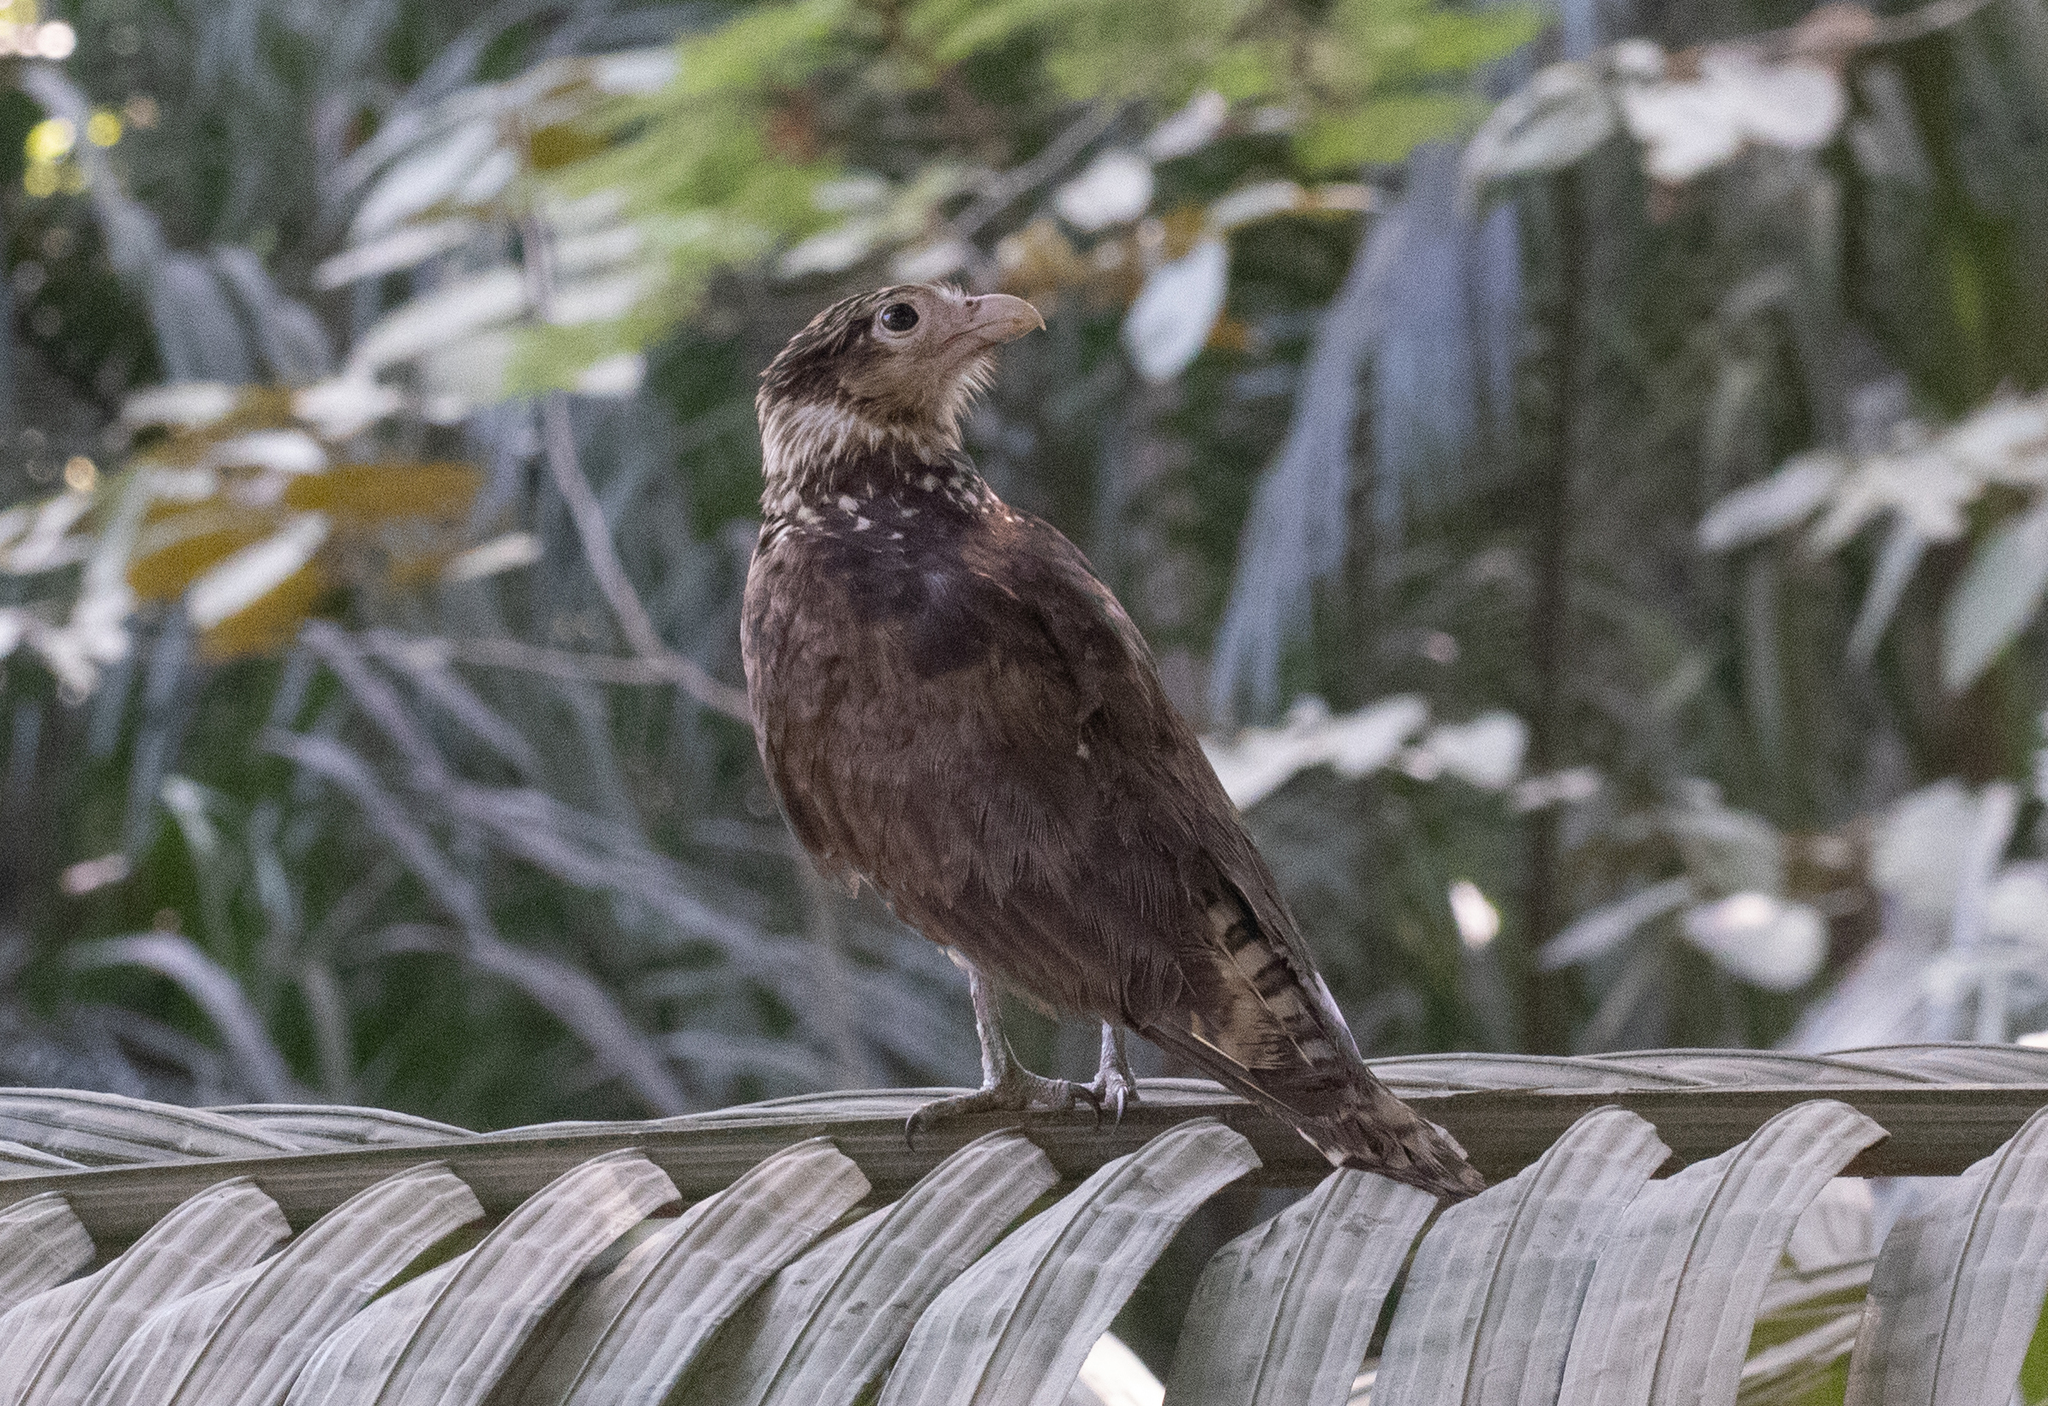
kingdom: Animalia
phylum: Chordata
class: Aves
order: Falconiformes
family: Falconidae
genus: Daptrius
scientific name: Daptrius
